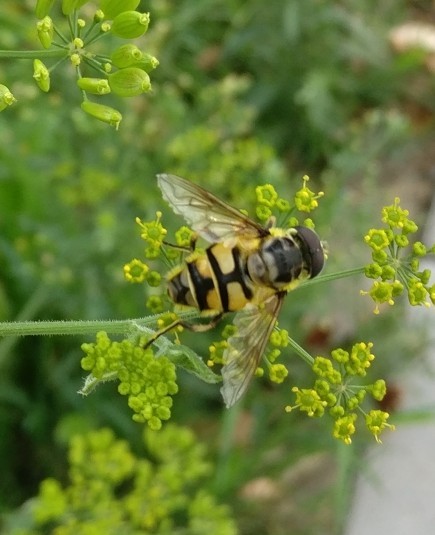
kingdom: Animalia
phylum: Arthropoda
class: Insecta
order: Diptera
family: Syrphidae
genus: Myathropa
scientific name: Myathropa florea
